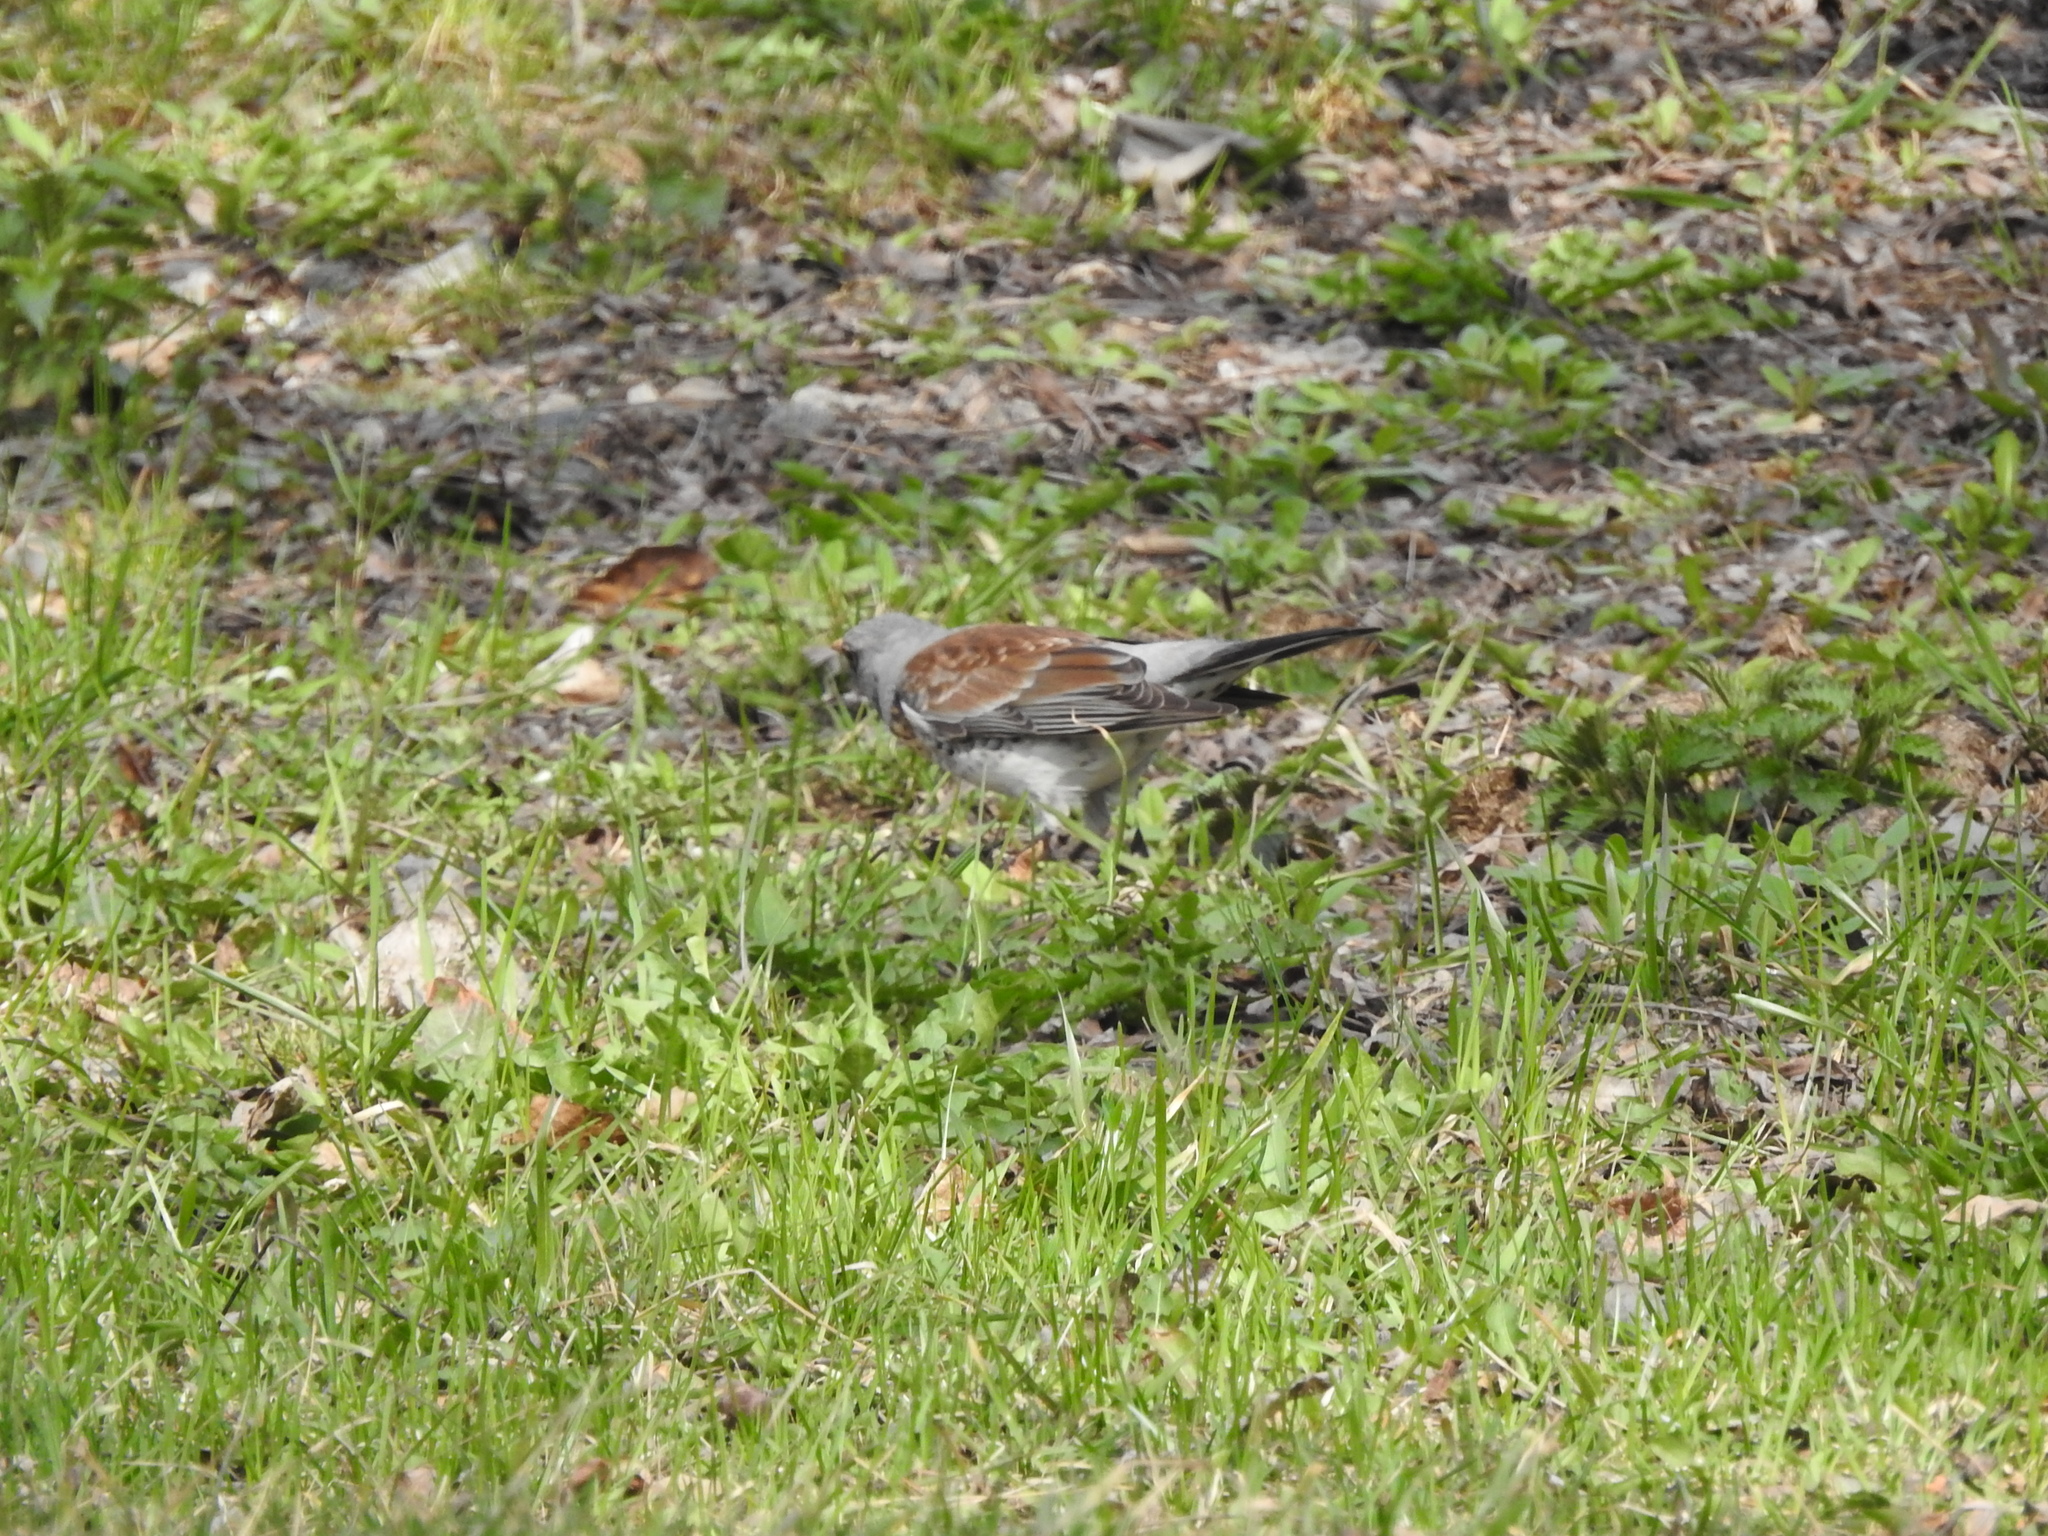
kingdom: Animalia
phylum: Chordata
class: Aves
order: Passeriformes
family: Turdidae
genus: Turdus
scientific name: Turdus pilaris
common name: Fieldfare
